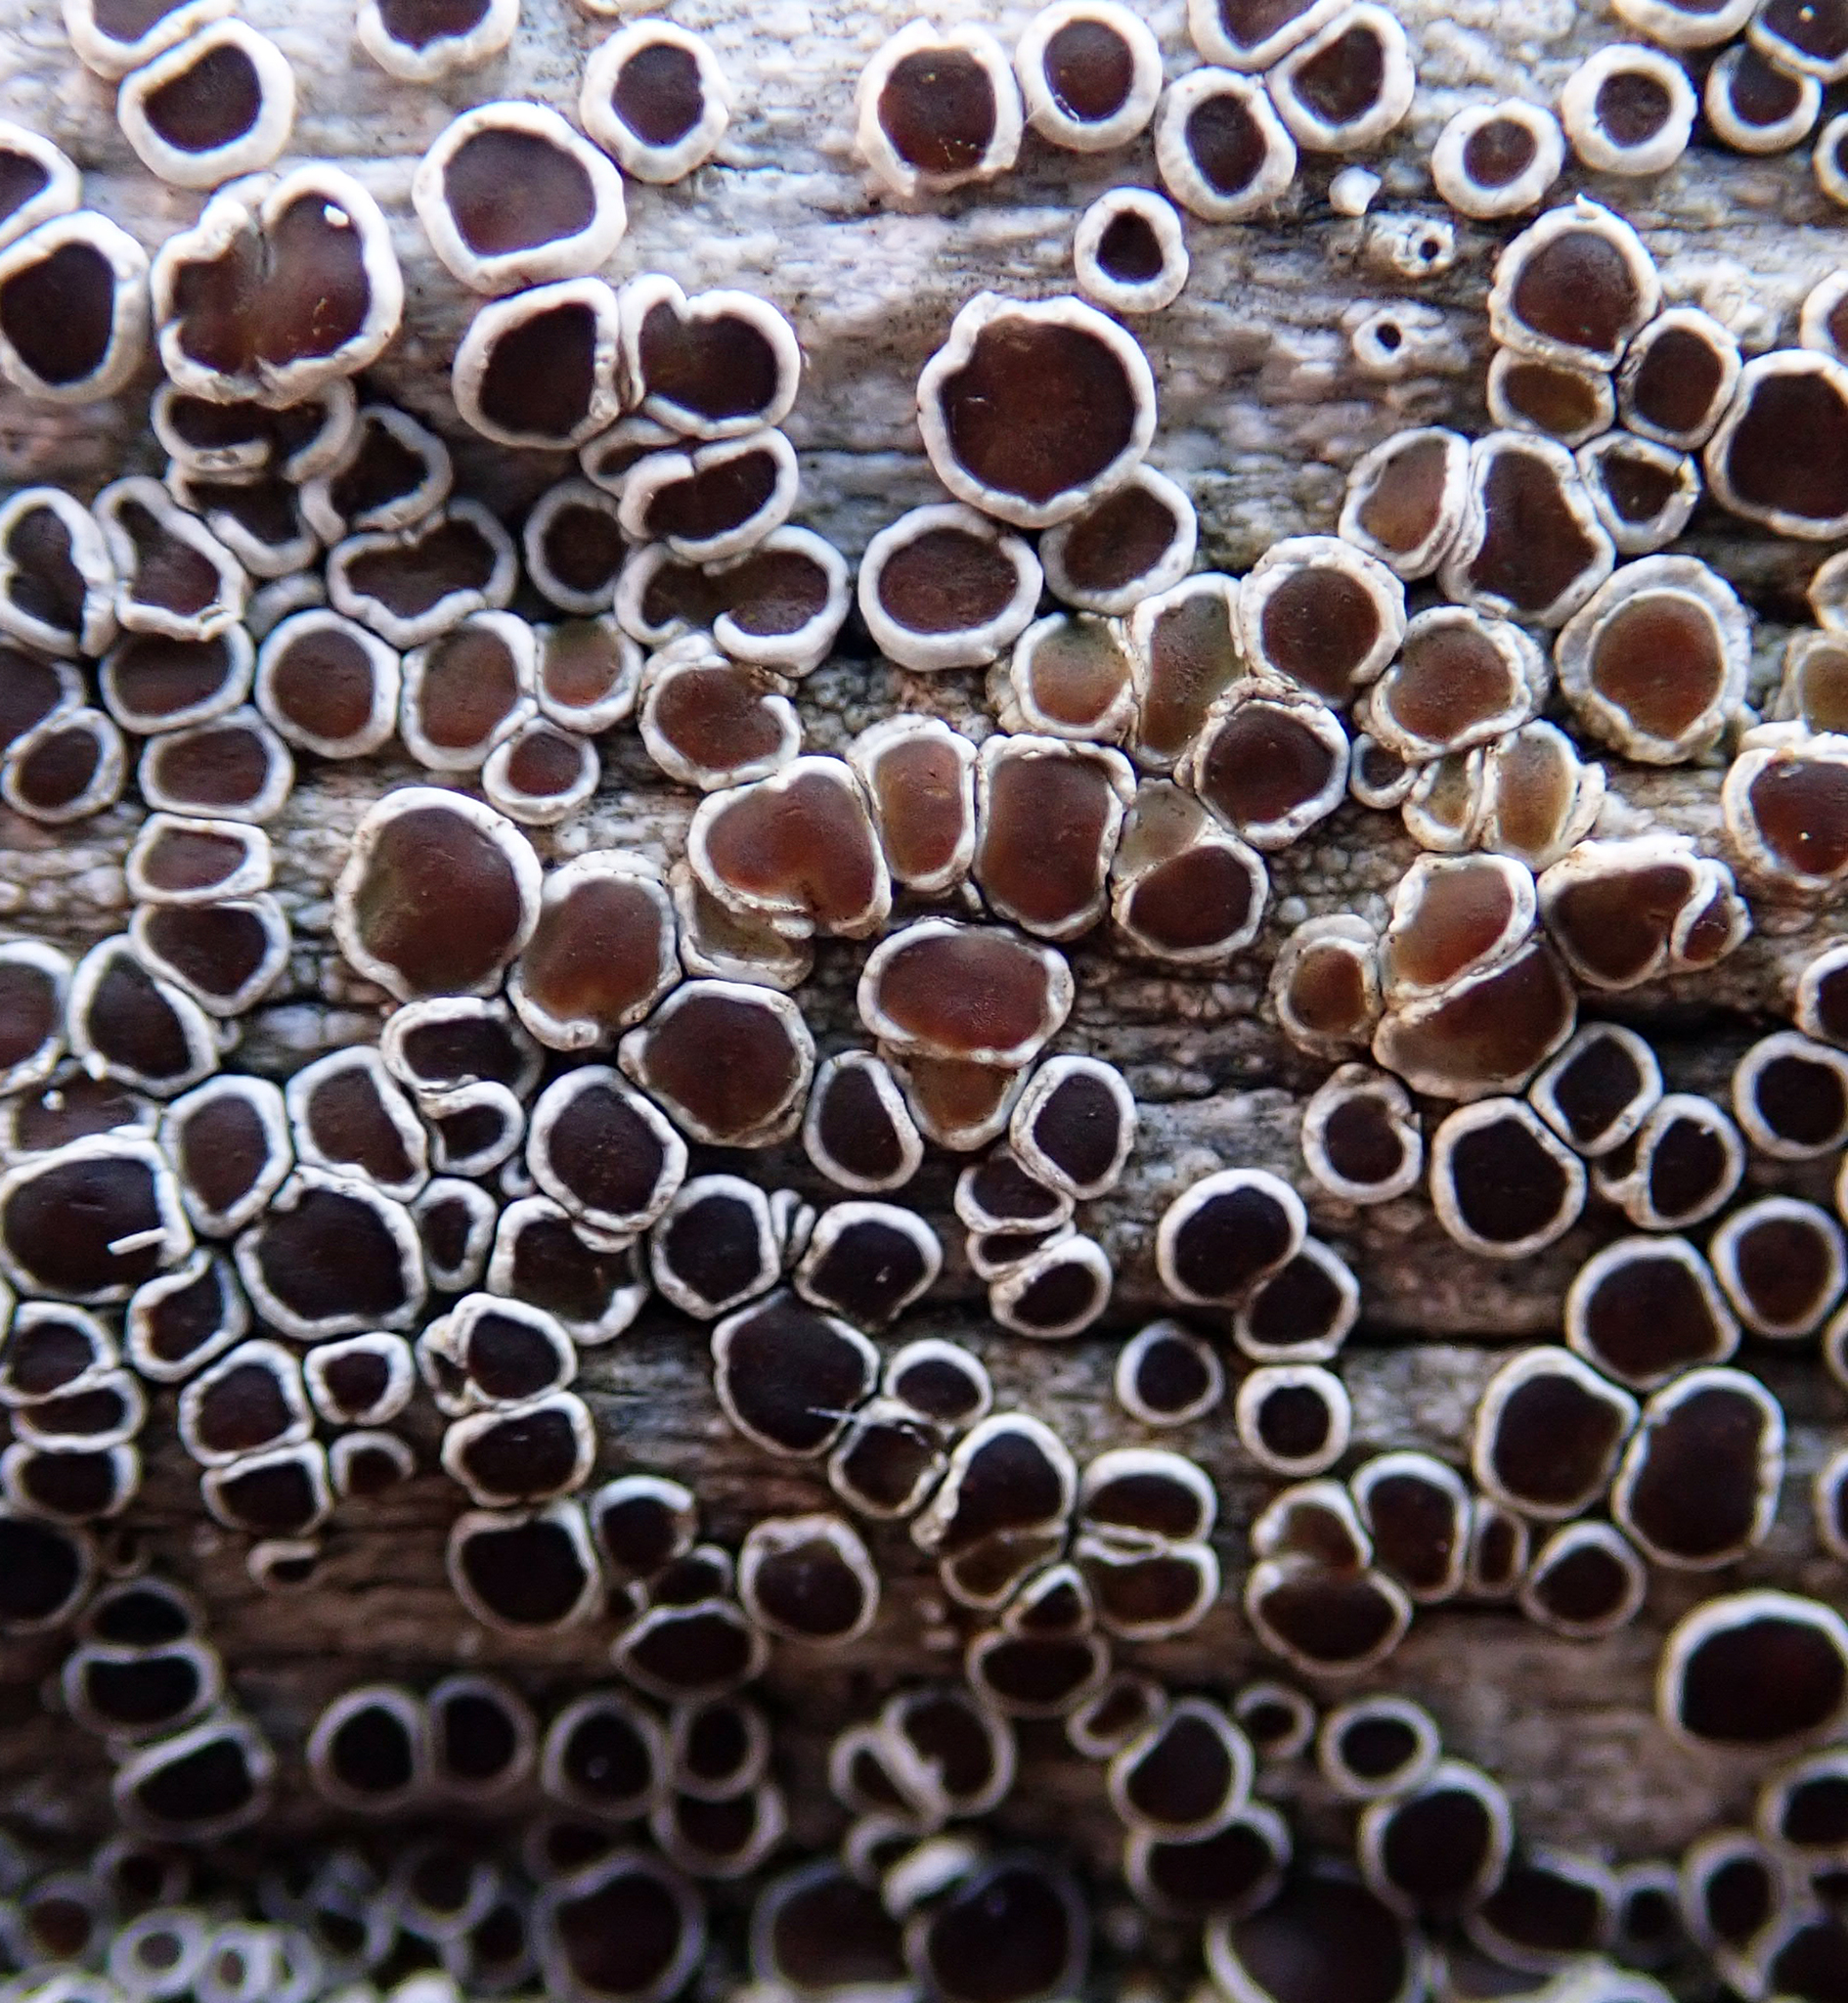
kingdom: Fungi
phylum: Ascomycota
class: Lecanoromycetes
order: Lecanorales
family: Lecanoraceae
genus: Lecanora
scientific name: Lecanora xylophila
